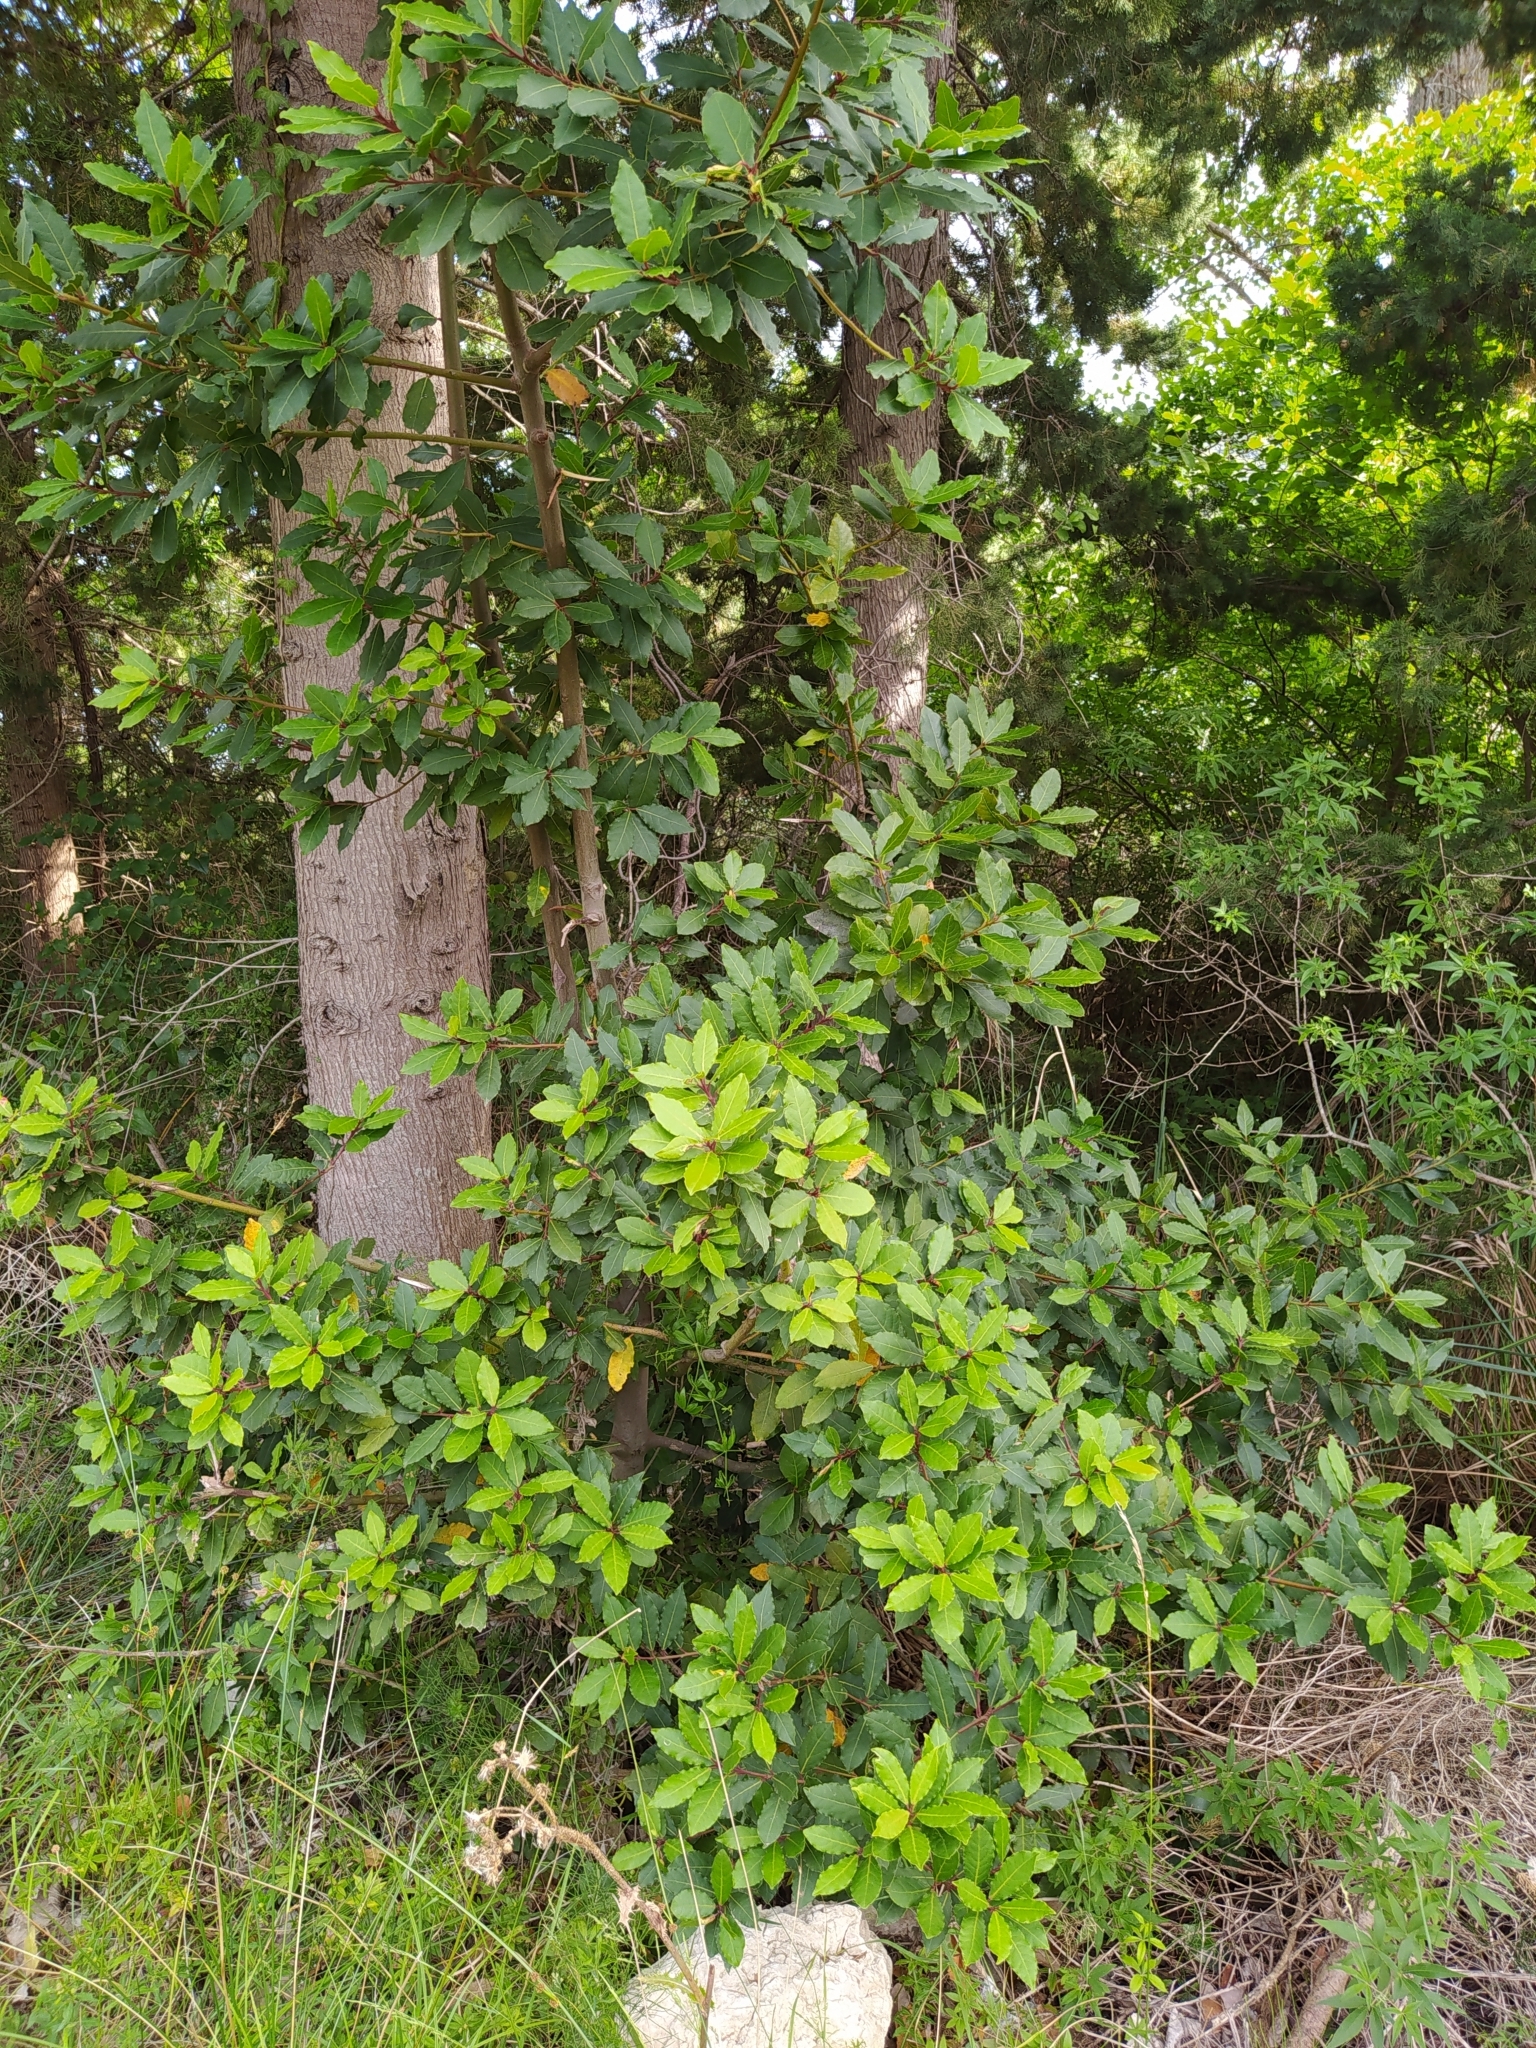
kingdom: Plantae
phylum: Tracheophyta
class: Magnoliopsida
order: Laurales
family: Lauraceae
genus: Laurus
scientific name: Laurus nobilis
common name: Bay
